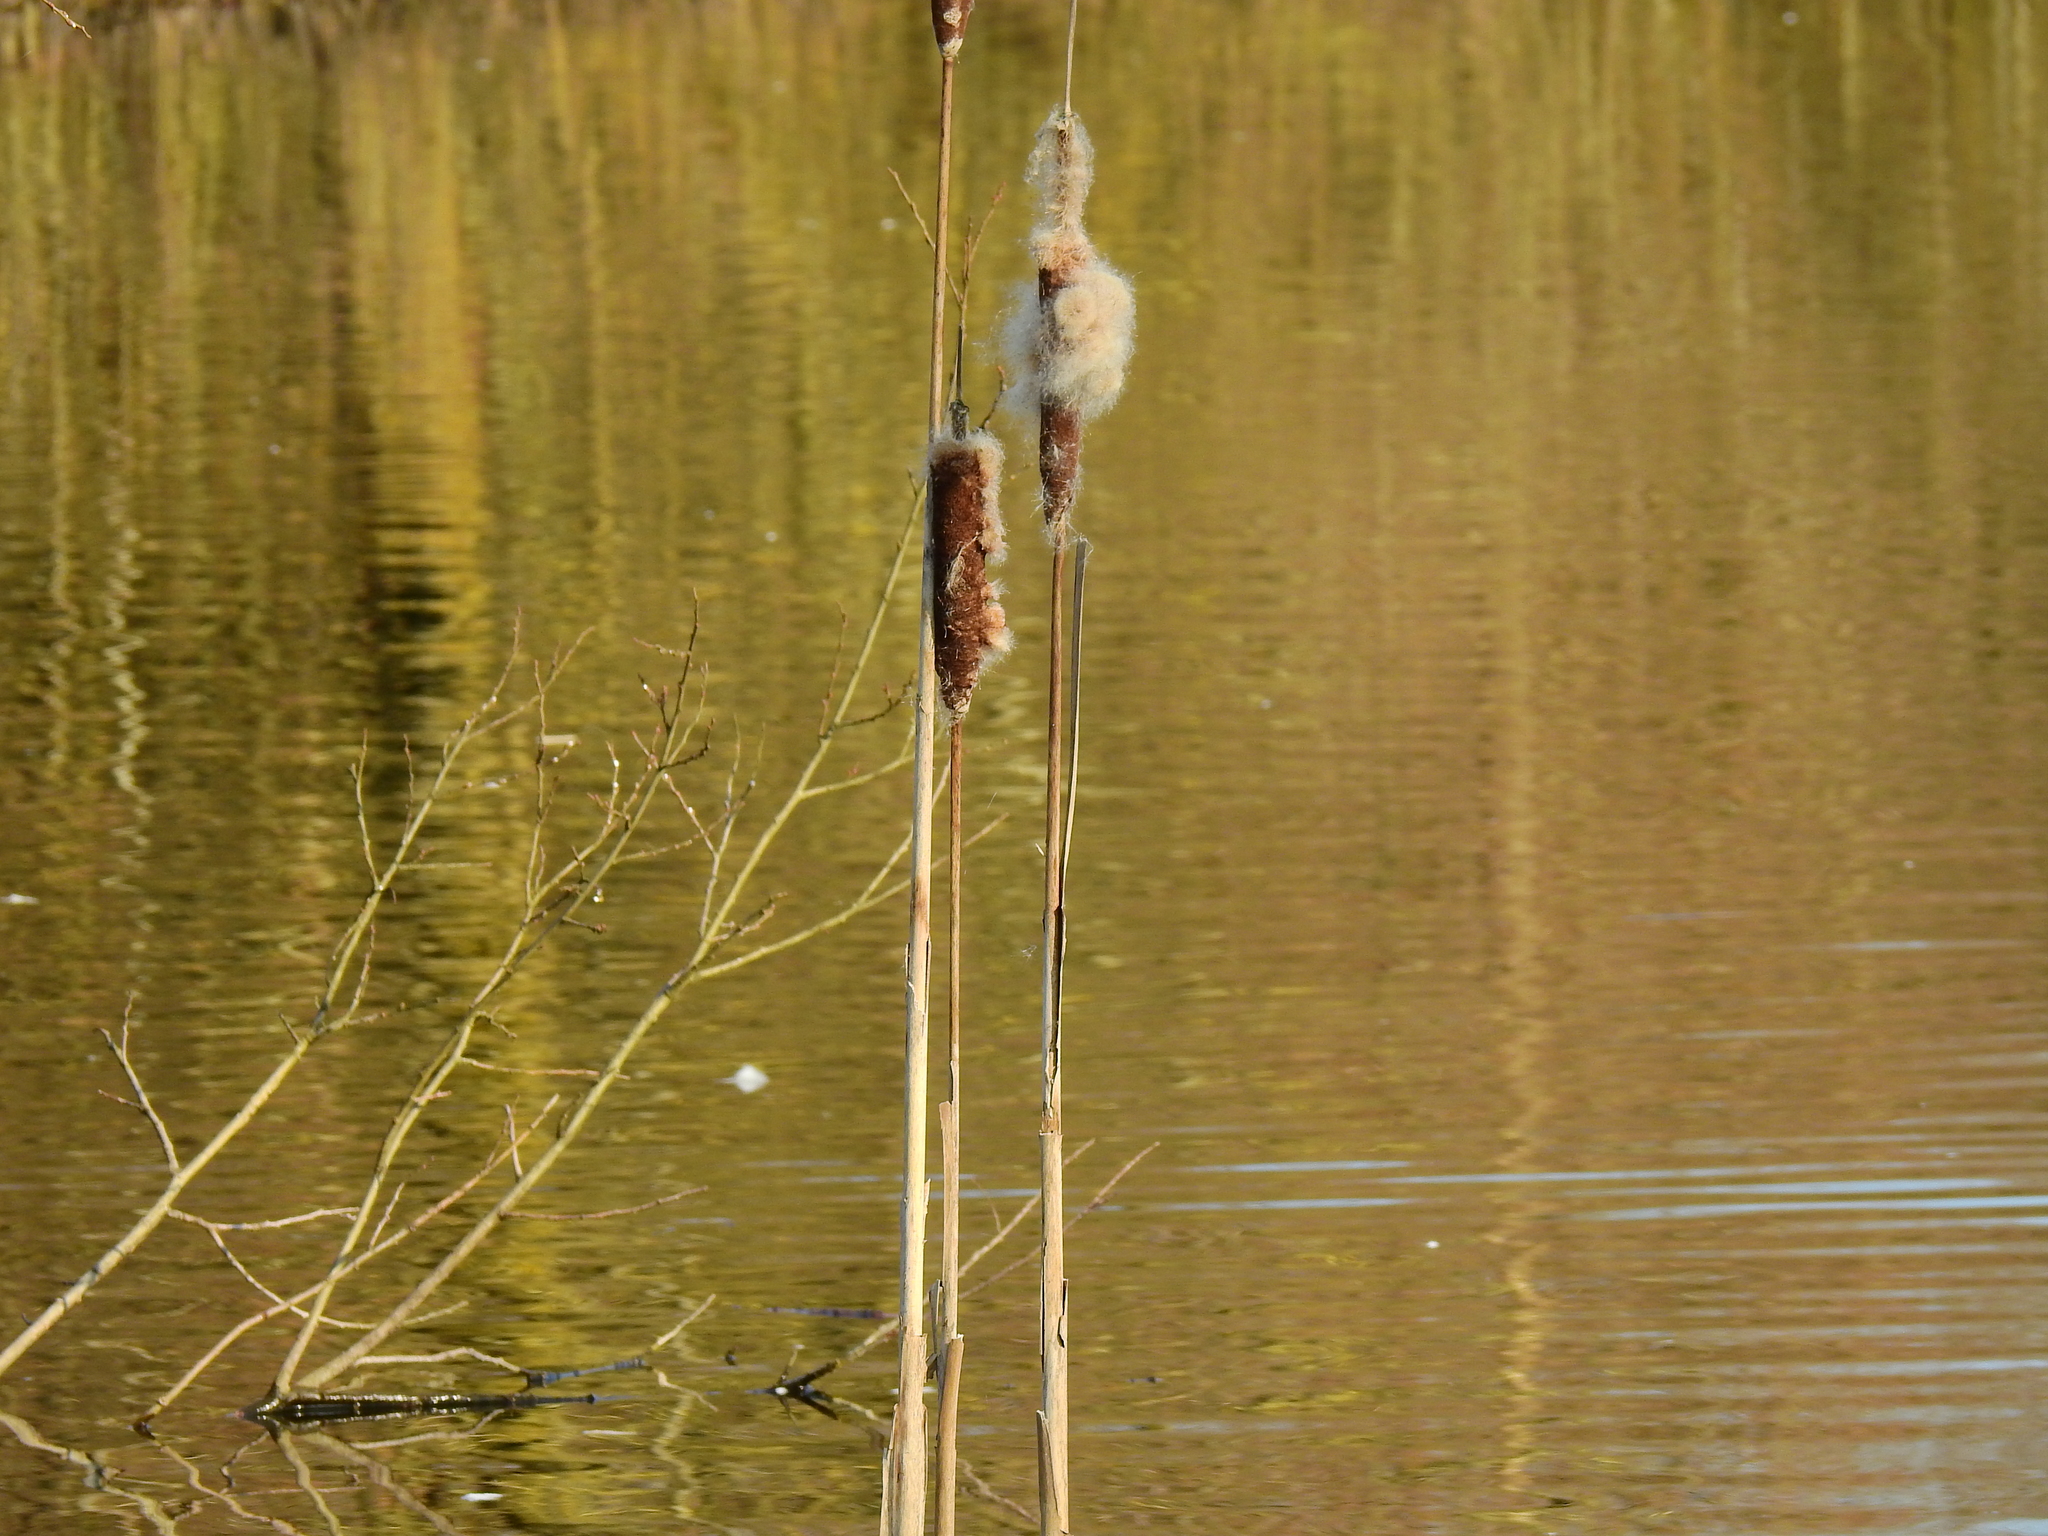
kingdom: Plantae
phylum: Tracheophyta
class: Liliopsida
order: Poales
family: Typhaceae
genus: Typha
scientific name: Typha latifolia
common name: Broadleaf cattail
